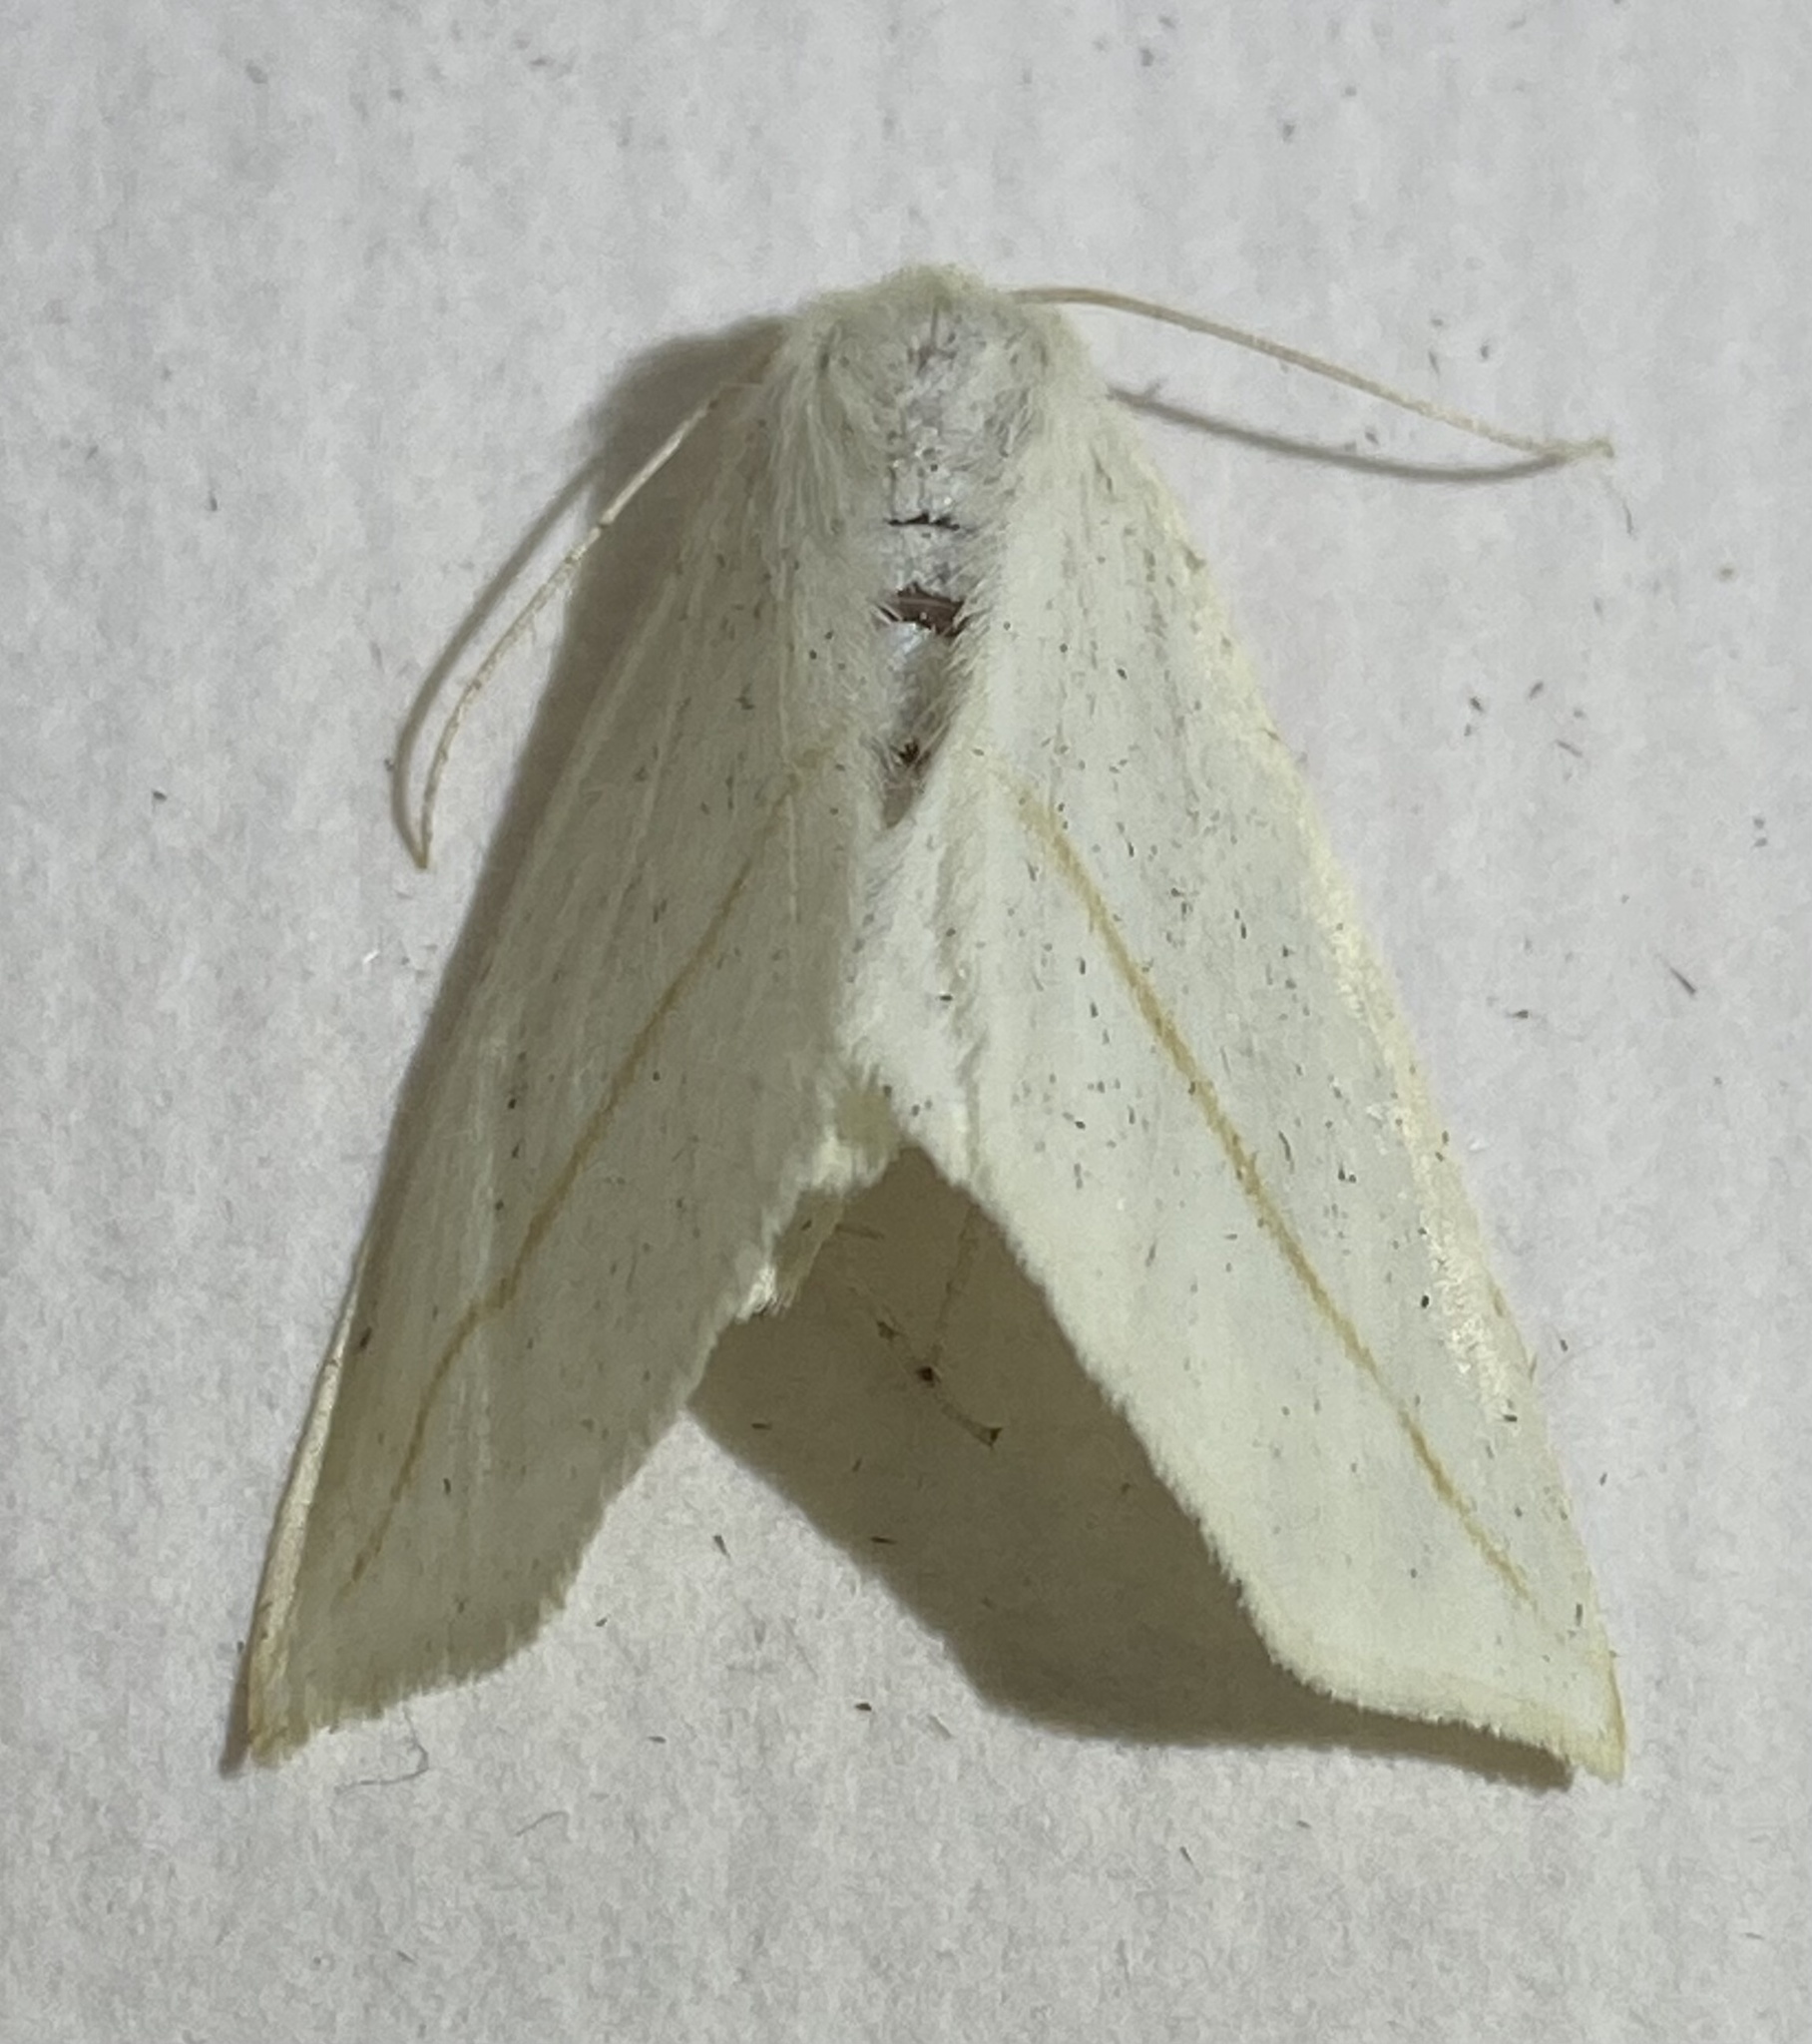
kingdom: Animalia
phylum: Arthropoda
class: Insecta
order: Lepidoptera
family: Geometridae
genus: Tetracis
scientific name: Tetracis cachexiata
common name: White slant-line
